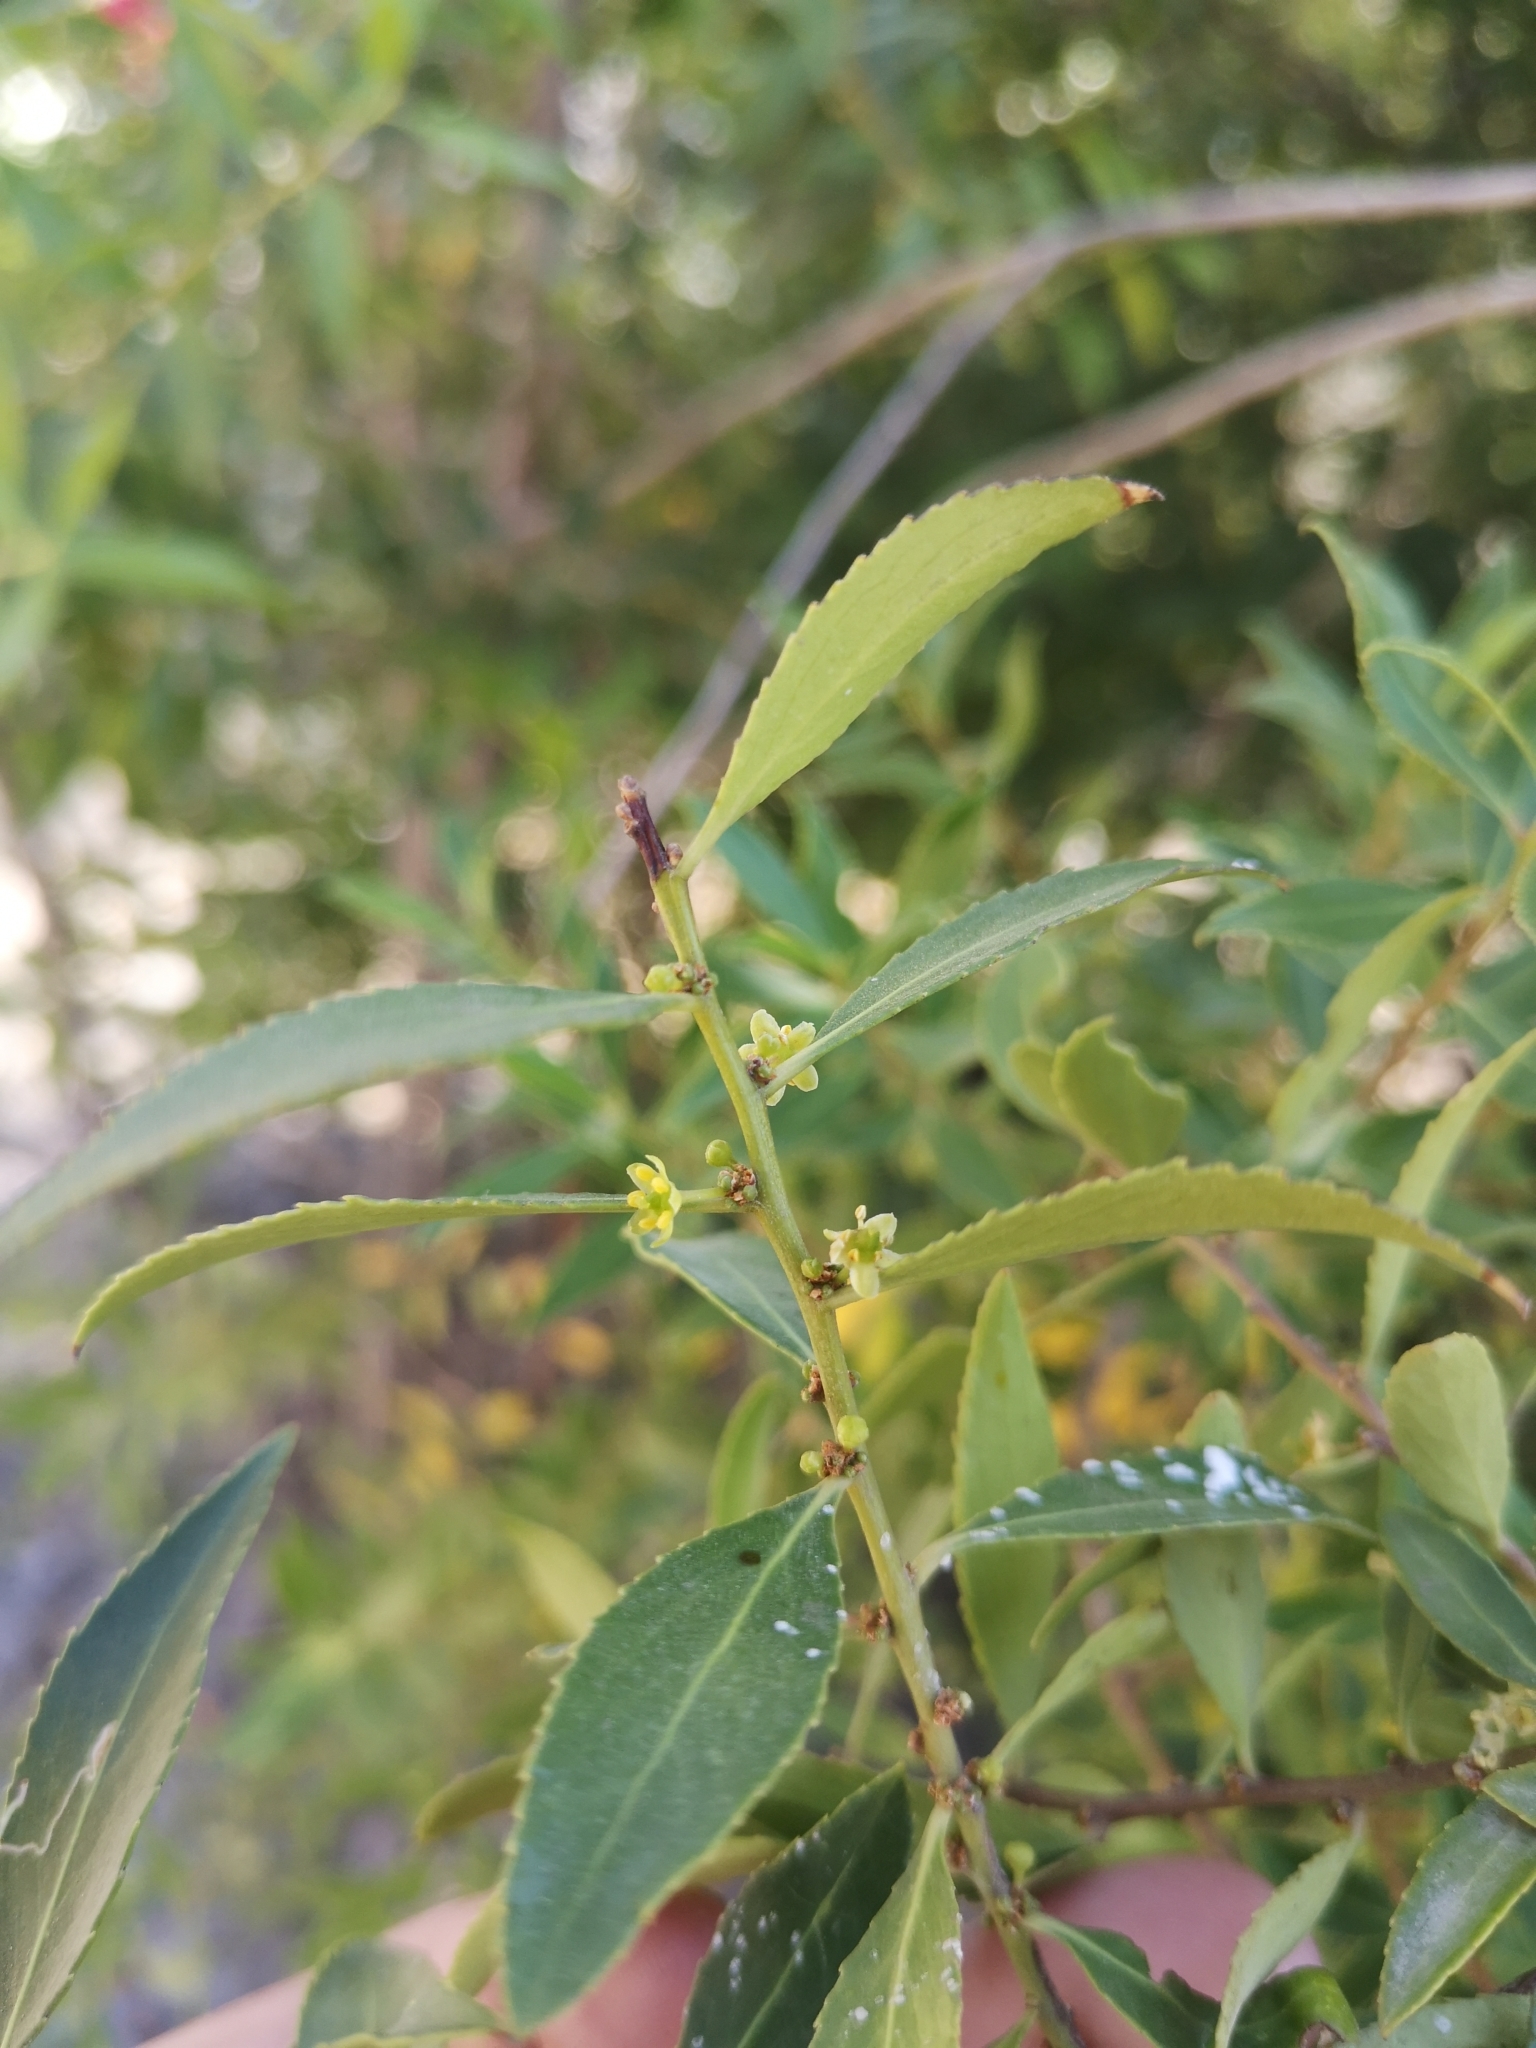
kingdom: Plantae
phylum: Tracheophyta
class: Magnoliopsida
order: Celastrales
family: Celastraceae
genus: Maytenus
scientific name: Maytenus boaria
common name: Mayten
